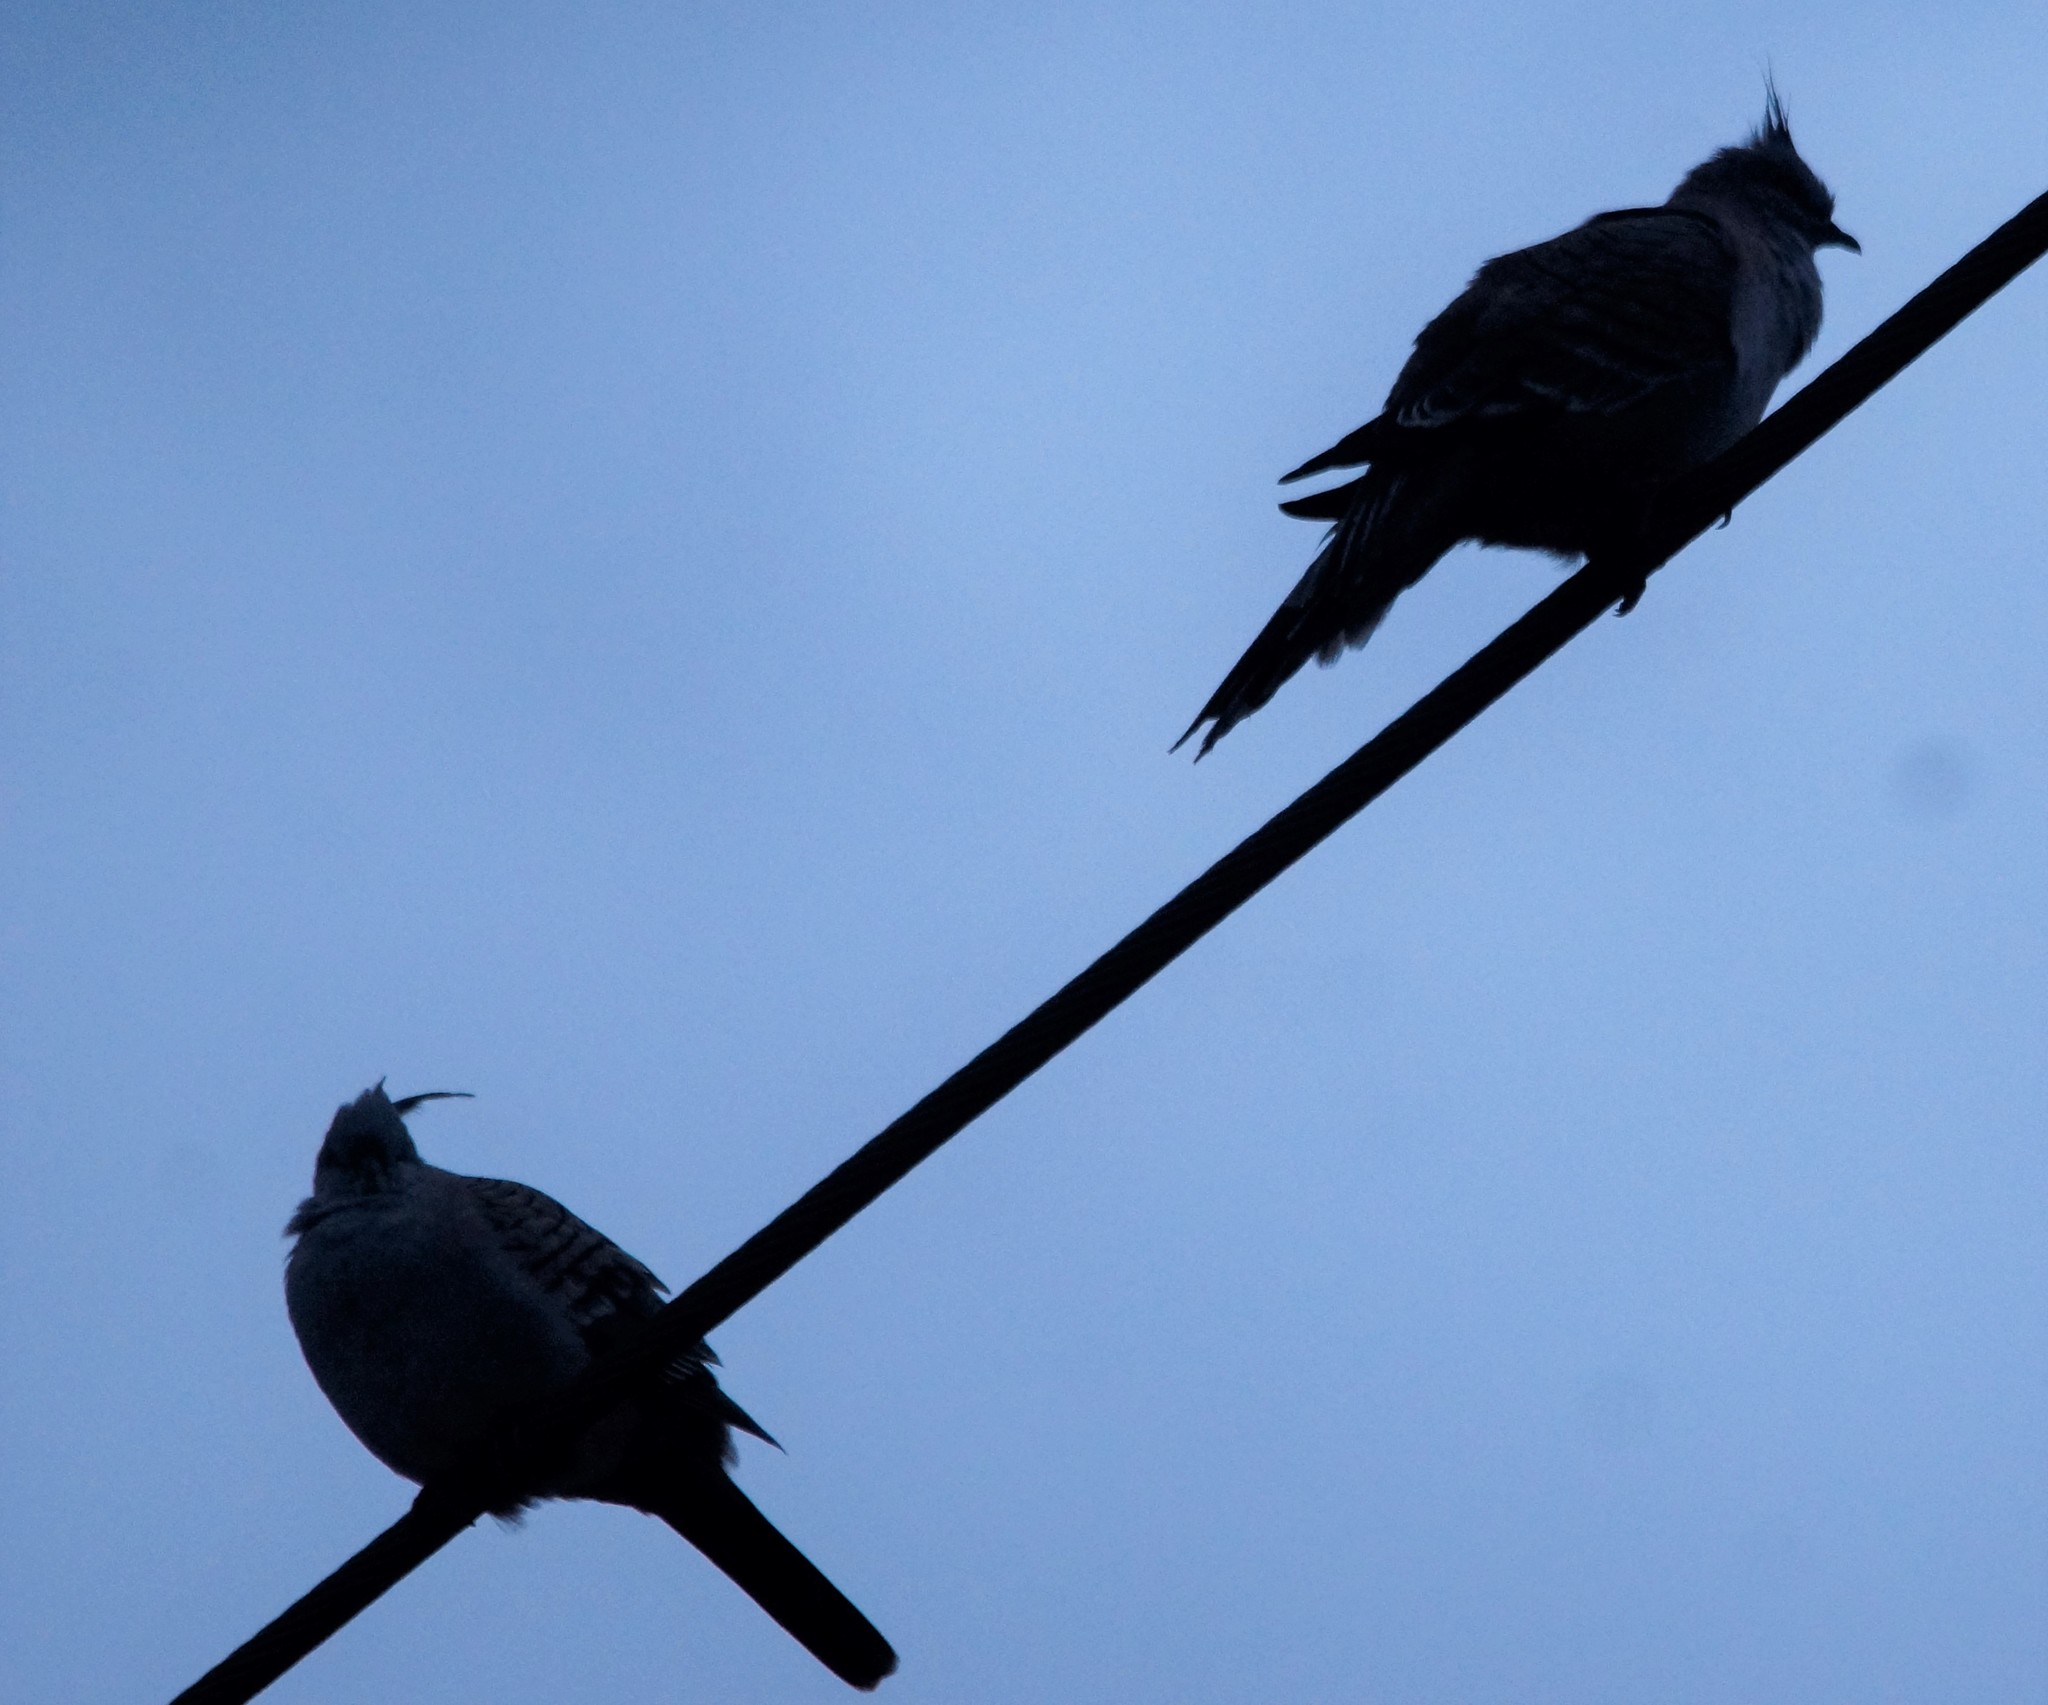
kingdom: Animalia
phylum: Chordata
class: Aves
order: Columbiformes
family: Columbidae
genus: Ocyphaps
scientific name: Ocyphaps lophotes
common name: Crested pigeon
